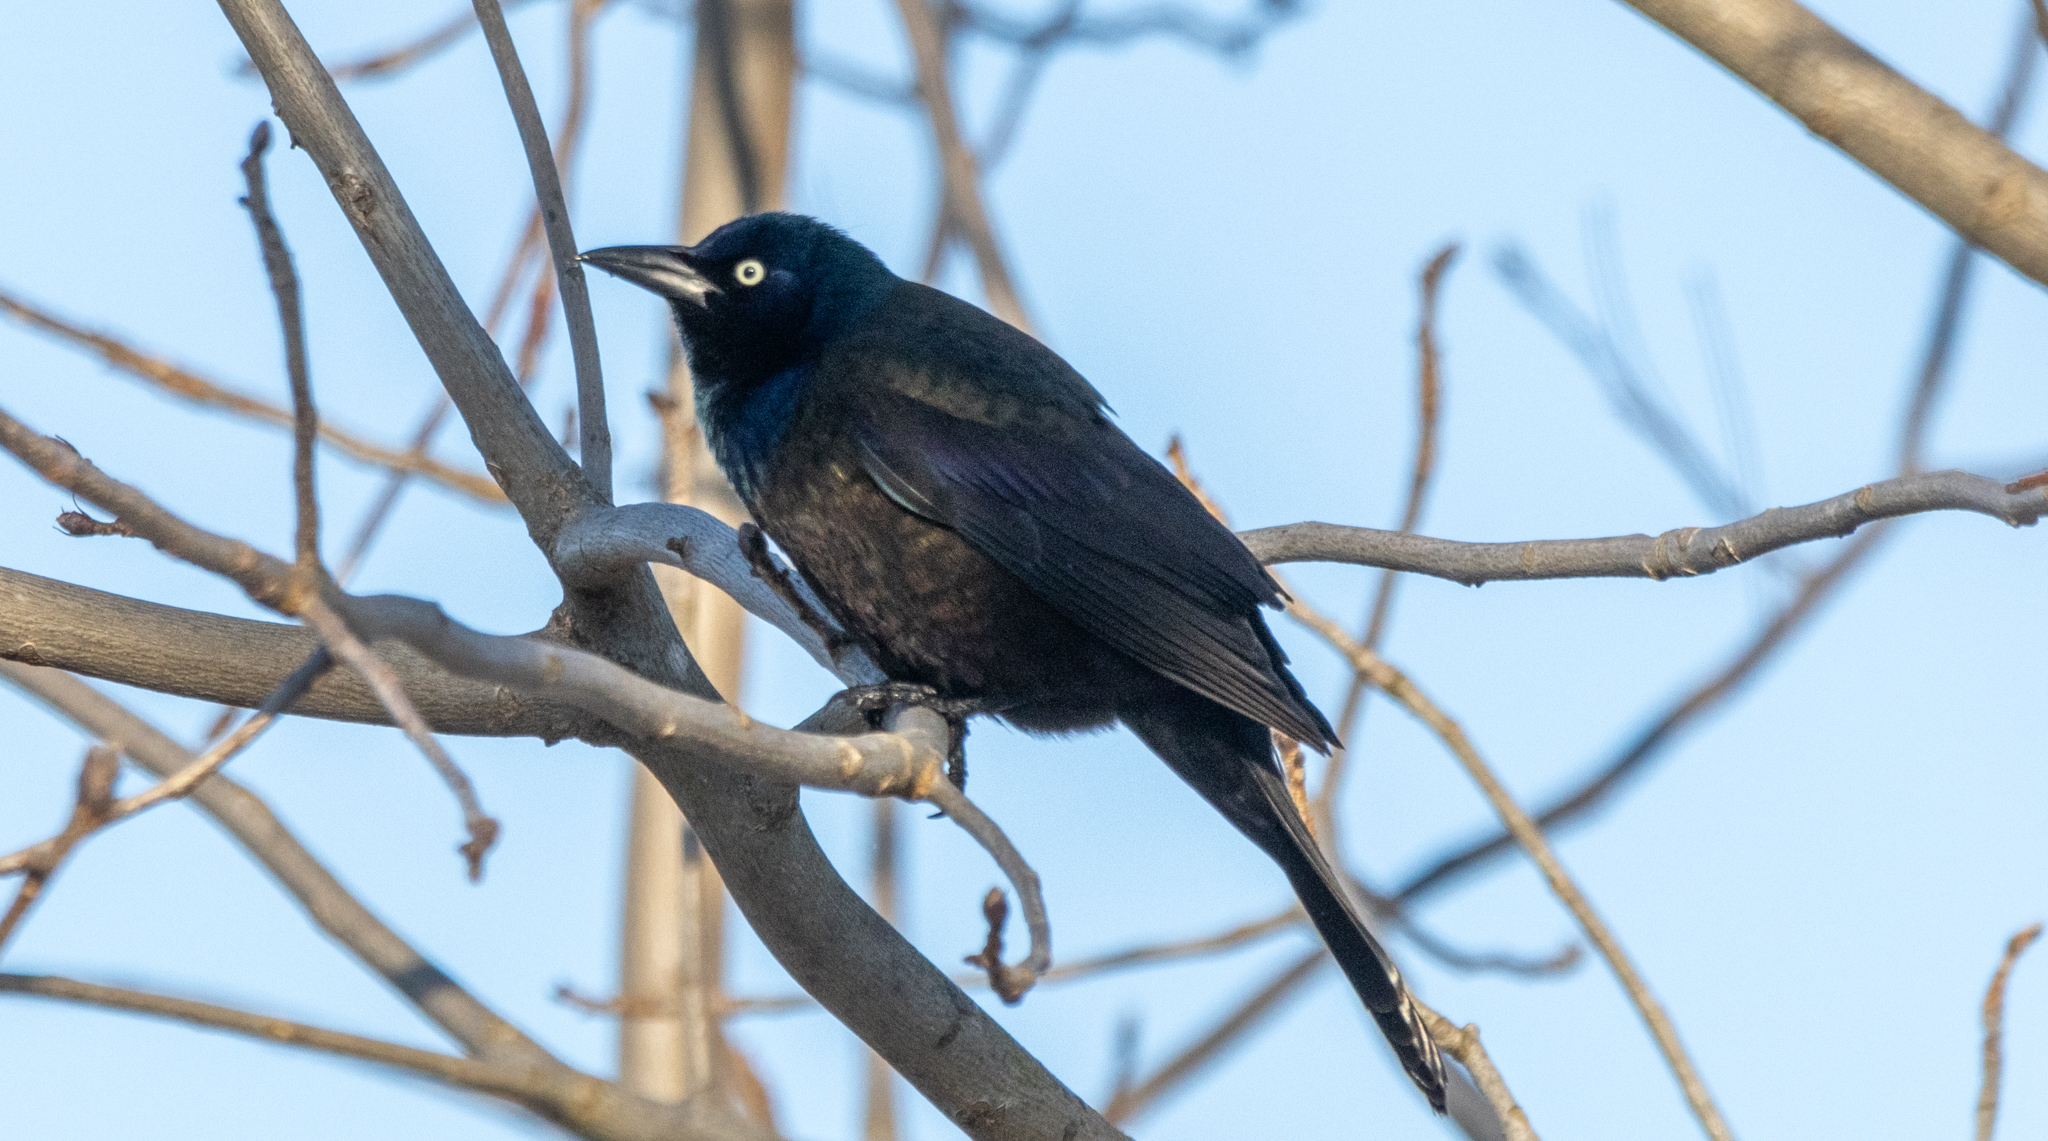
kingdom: Animalia
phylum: Chordata
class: Aves
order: Passeriformes
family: Icteridae
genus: Quiscalus
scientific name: Quiscalus quiscula
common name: Common grackle
